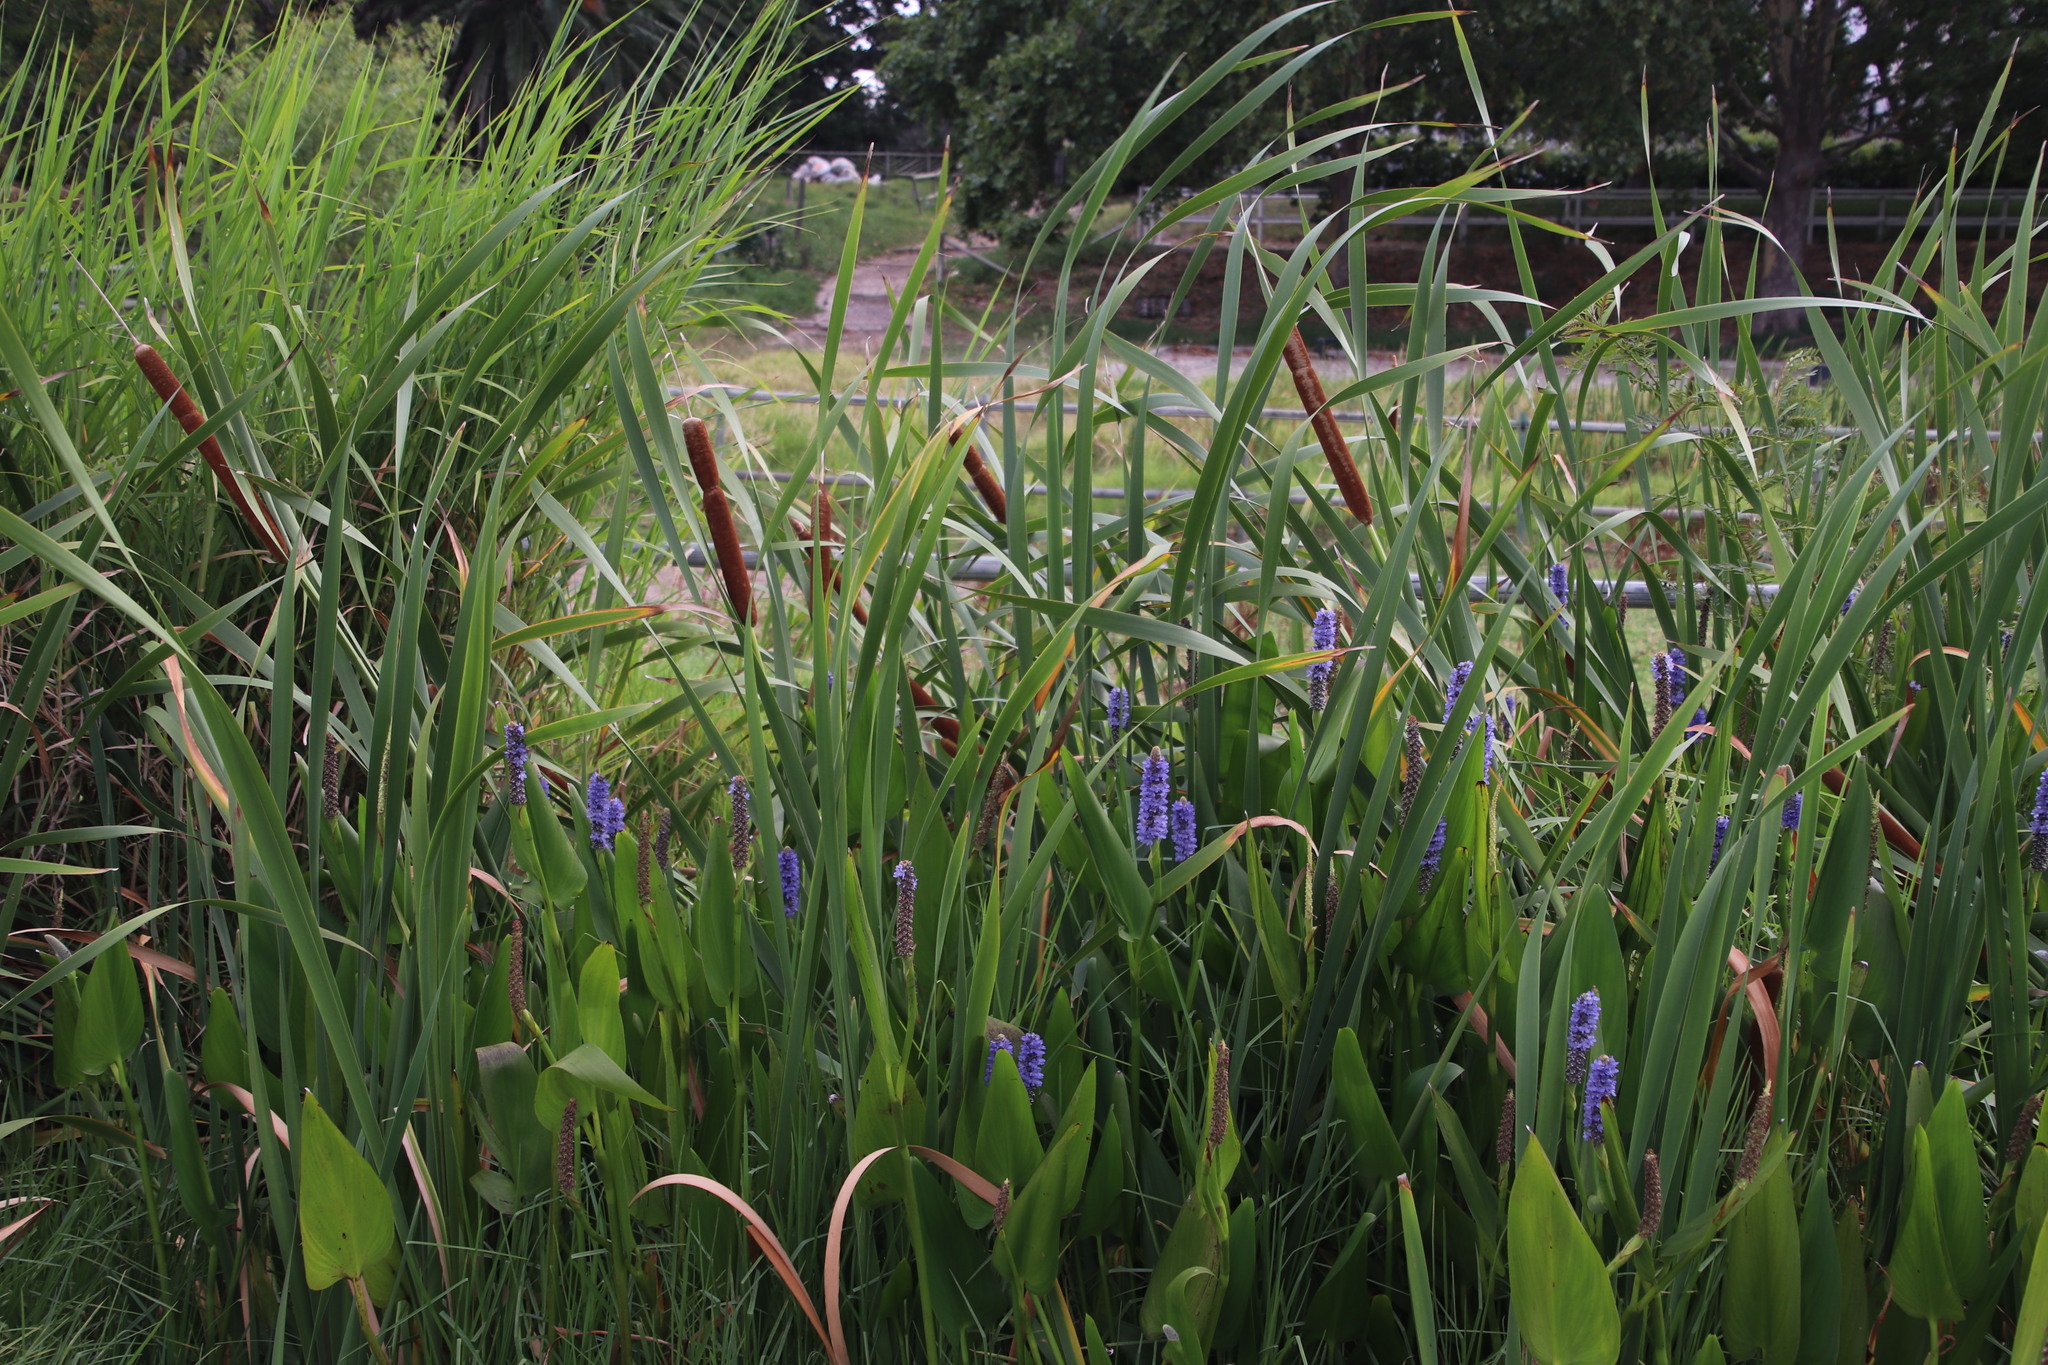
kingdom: Plantae
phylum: Tracheophyta
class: Liliopsida
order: Poales
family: Typhaceae
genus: Typha
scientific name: Typha capensis
